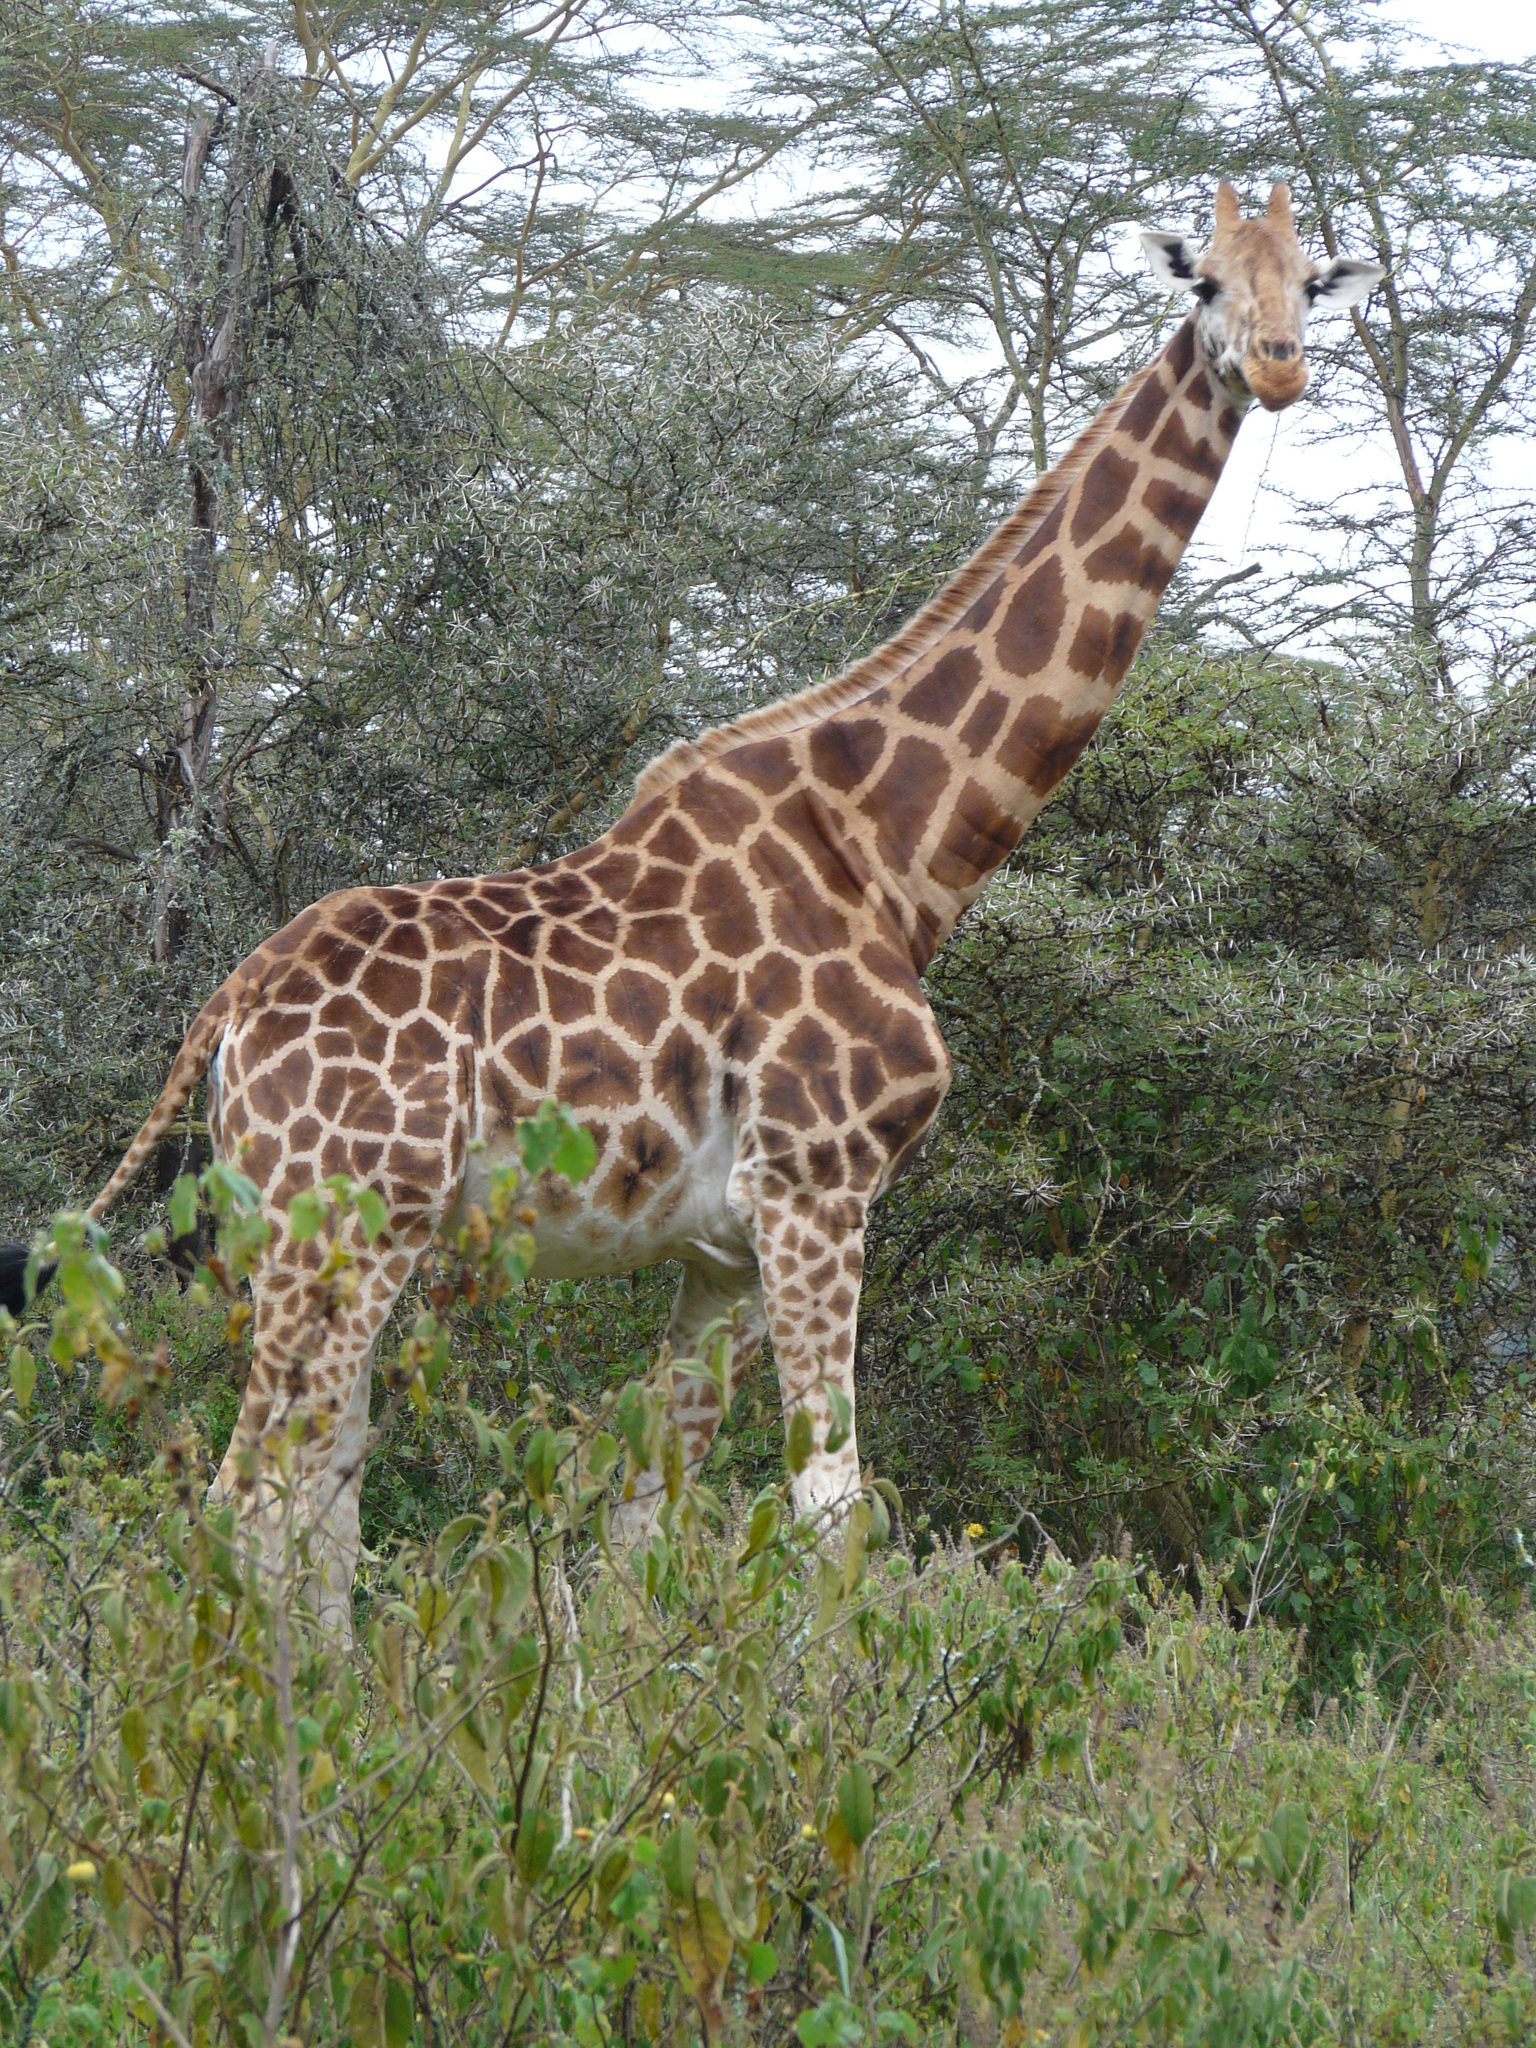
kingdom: Animalia
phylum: Chordata
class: Mammalia
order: Artiodactyla
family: Giraffidae
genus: Giraffa
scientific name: Giraffa camelopardalis
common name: Giraffe
